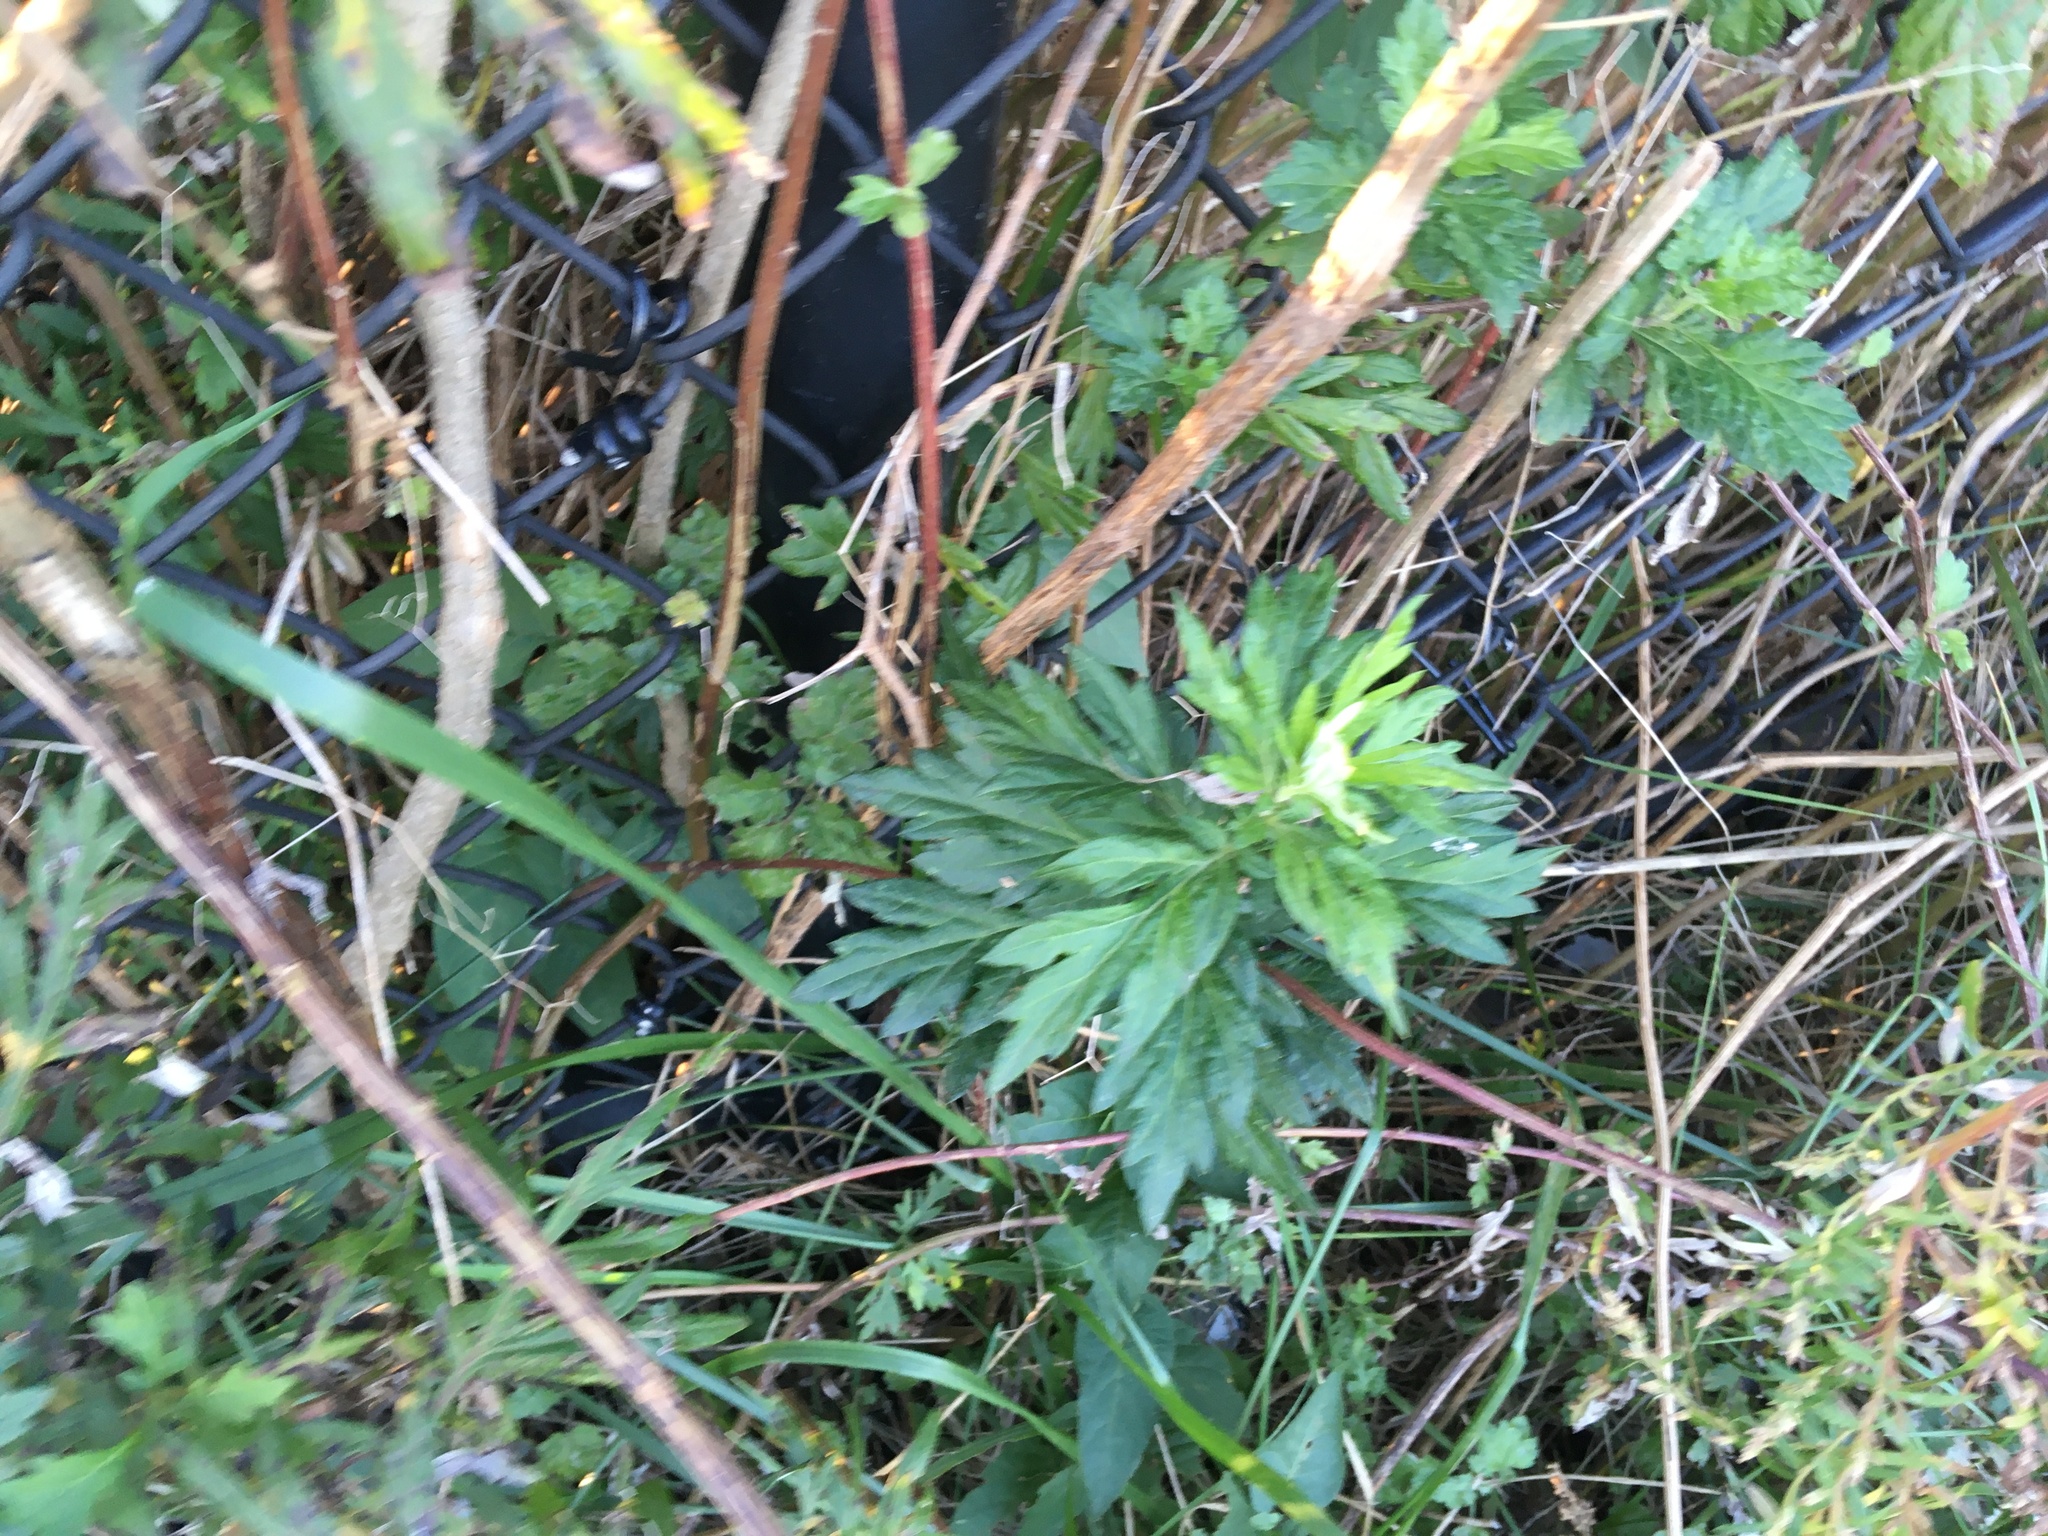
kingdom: Plantae
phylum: Tracheophyta
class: Magnoliopsida
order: Asterales
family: Asteraceae
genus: Artemisia
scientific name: Artemisia vulgaris
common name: Mugwort
